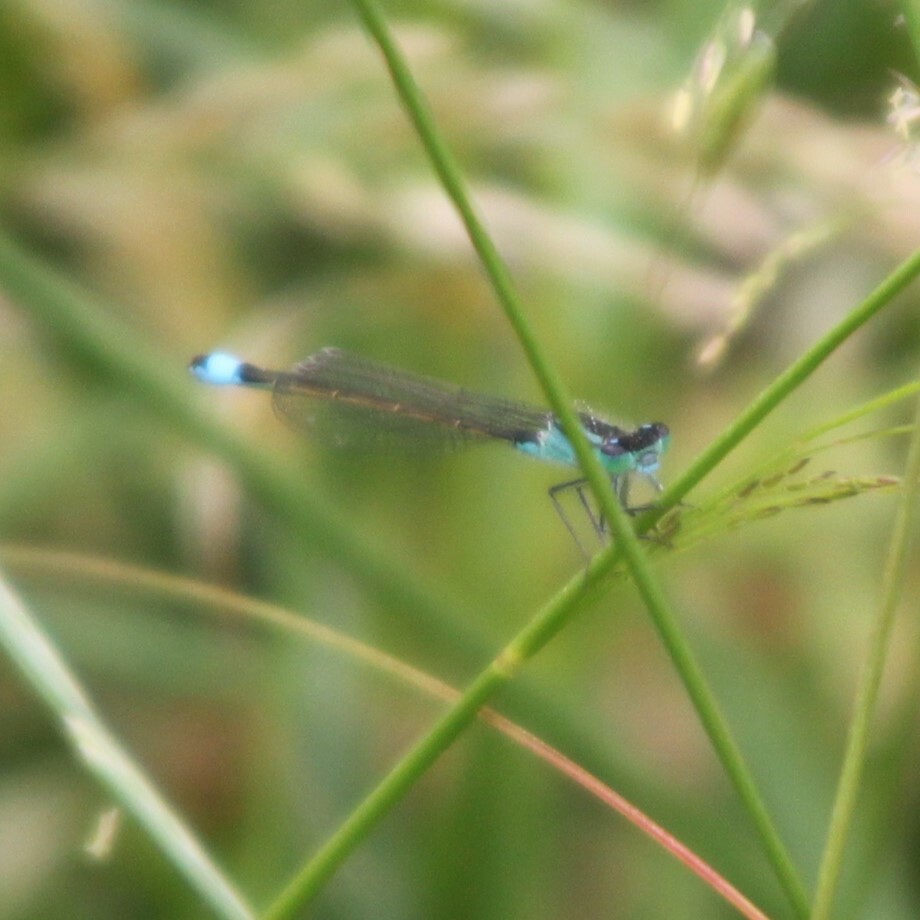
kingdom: Animalia
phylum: Arthropoda
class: Insecta
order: Odonata
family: Coenagrionidae
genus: Ischnura
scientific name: Ischnura elegans
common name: Blue-tailed damselfly
